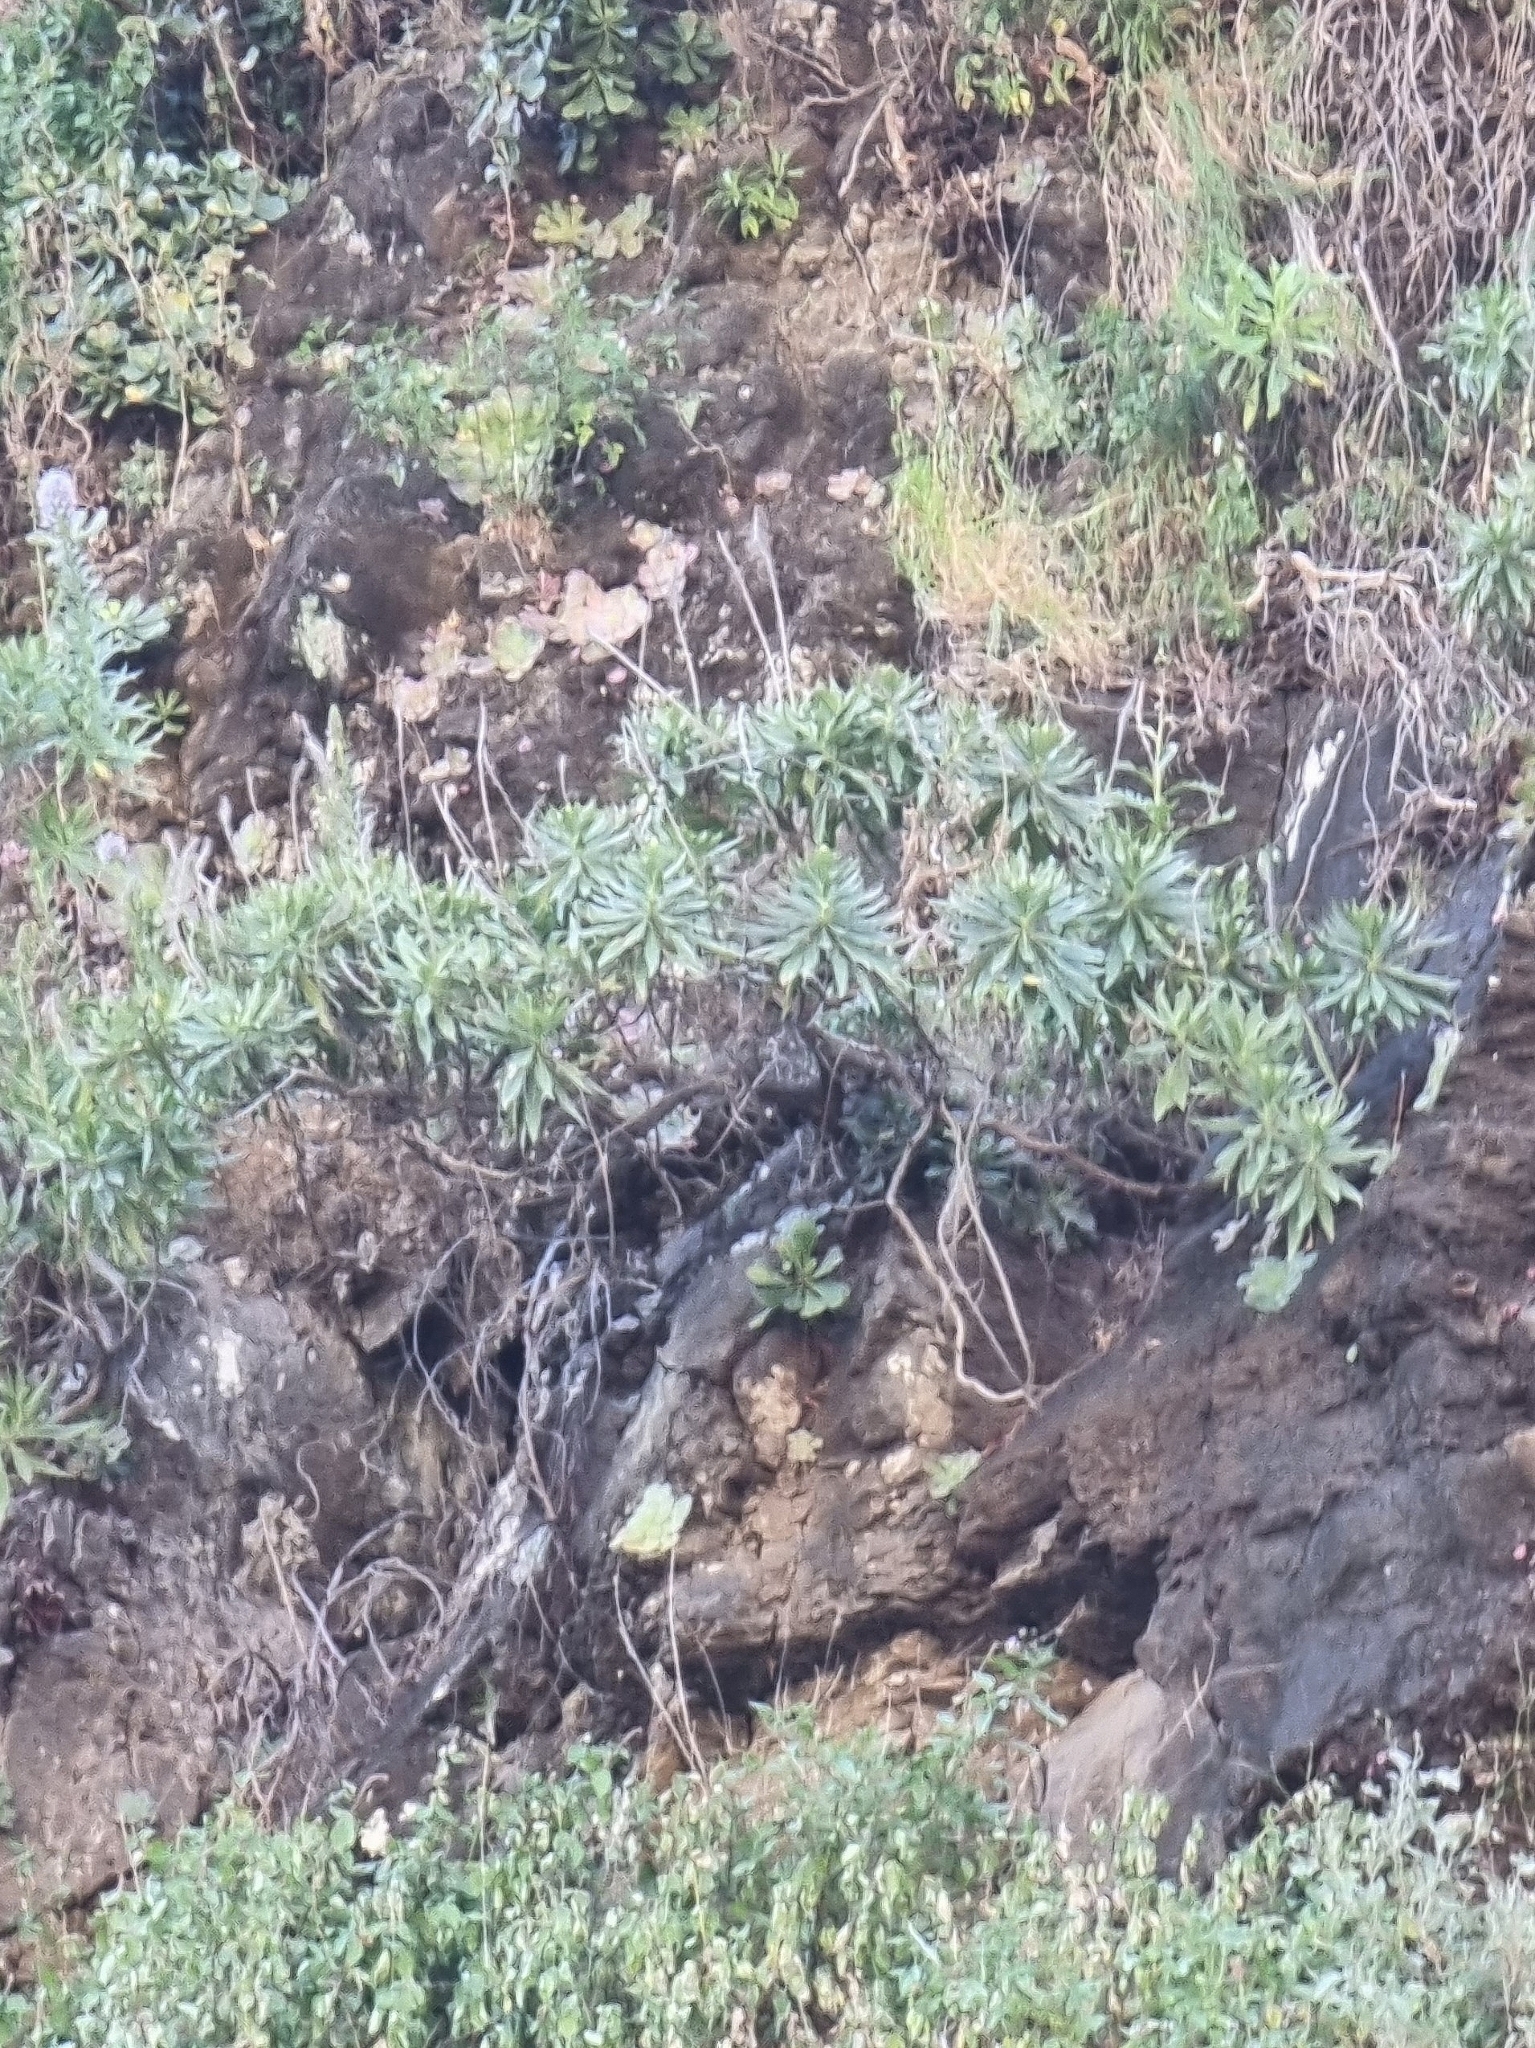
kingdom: Plantae
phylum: Tracheophyta
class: Magnoliopsida
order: Boraginales
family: Boraginaceae
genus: Echium
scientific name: Echium nervosum
